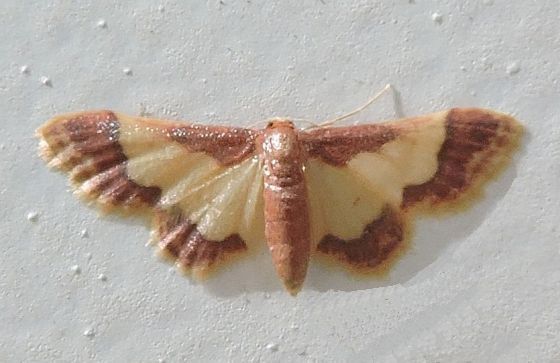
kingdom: Animalia
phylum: Arthropoda
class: Insecta
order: Lepidoptera
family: Geometridae
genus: Idaea
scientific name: Idaea basinta
